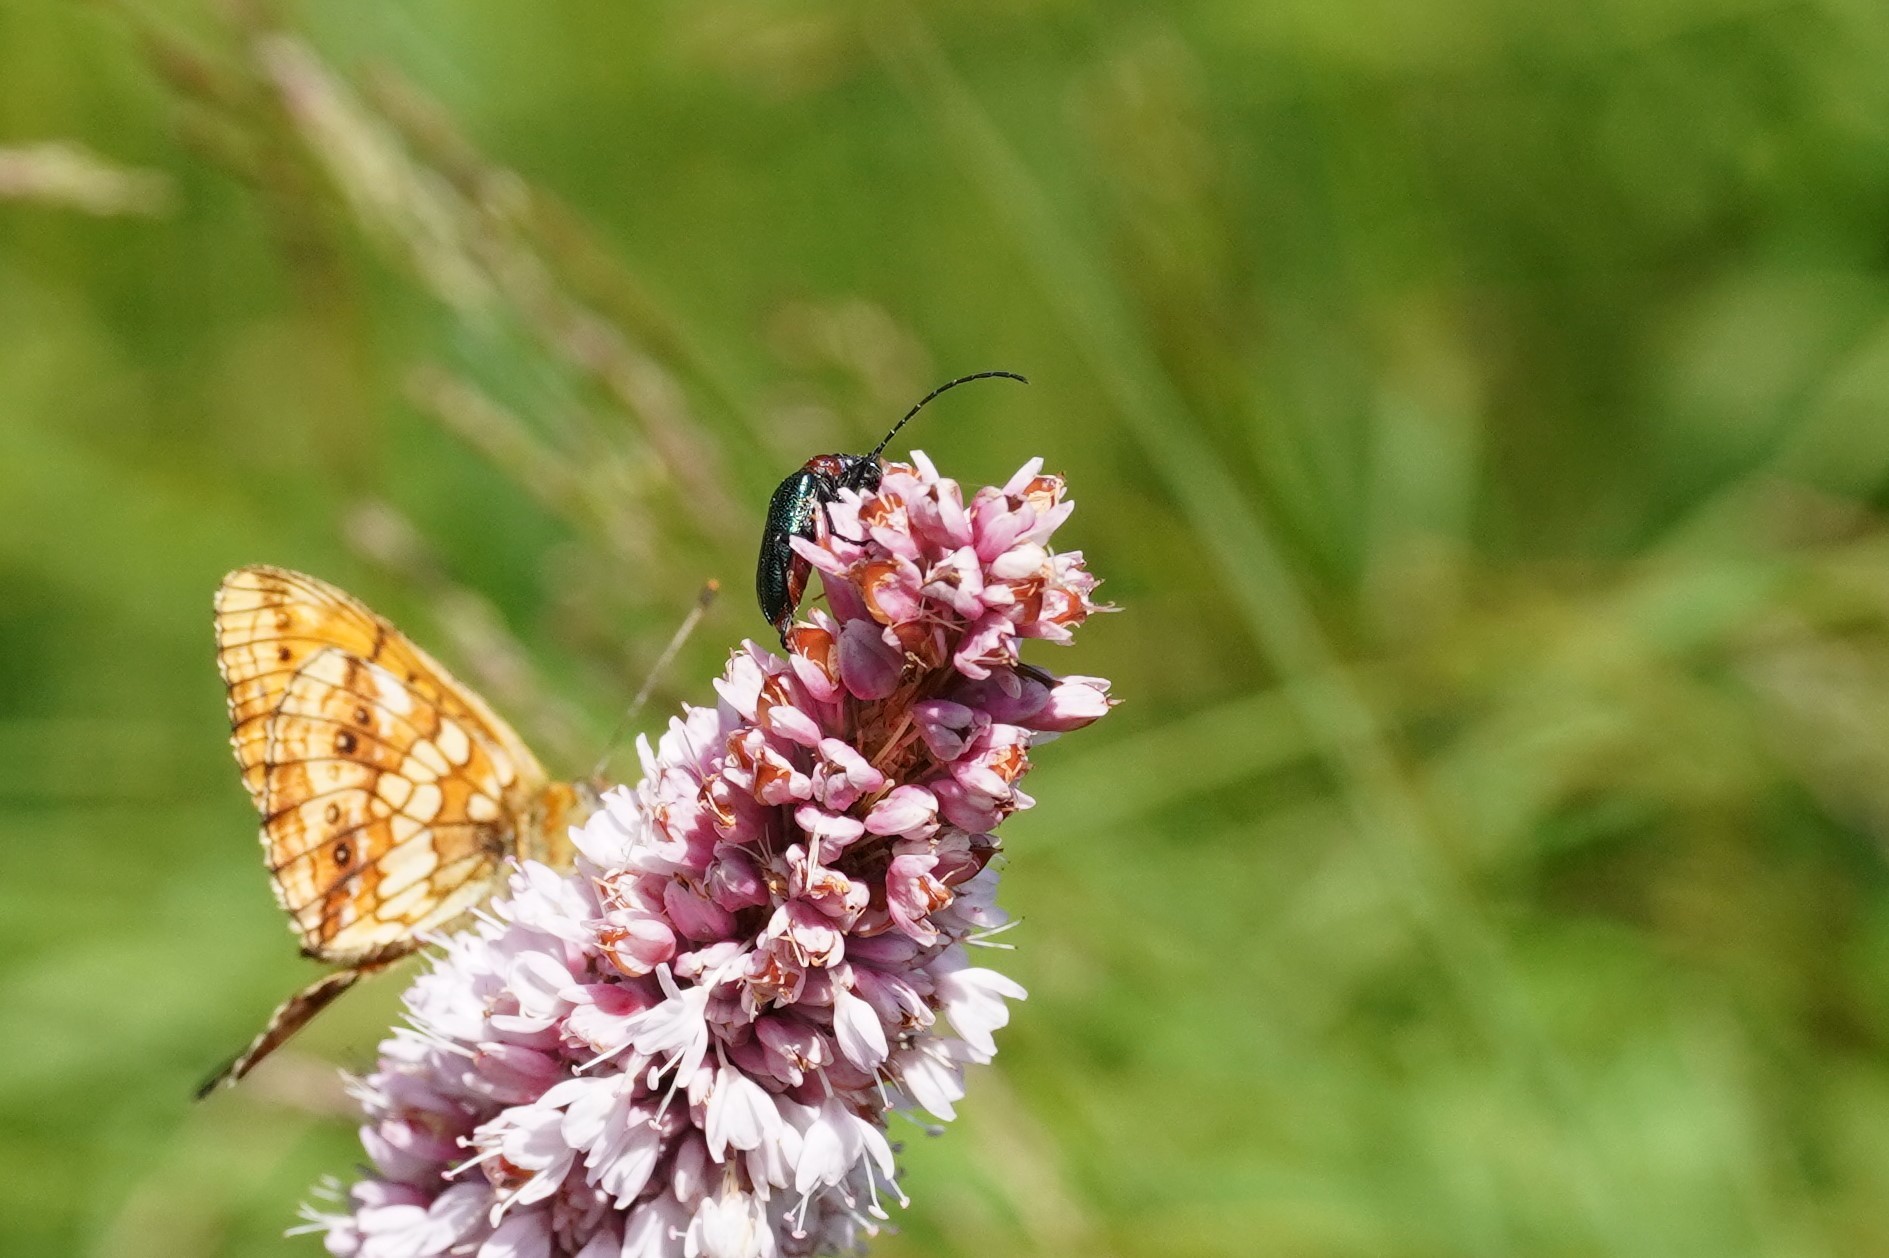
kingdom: Animalia
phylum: Arthropoda
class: Insecta
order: Coleoptera
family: Cerambycidae
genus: Gaurotes
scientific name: Gaurotes virginea
